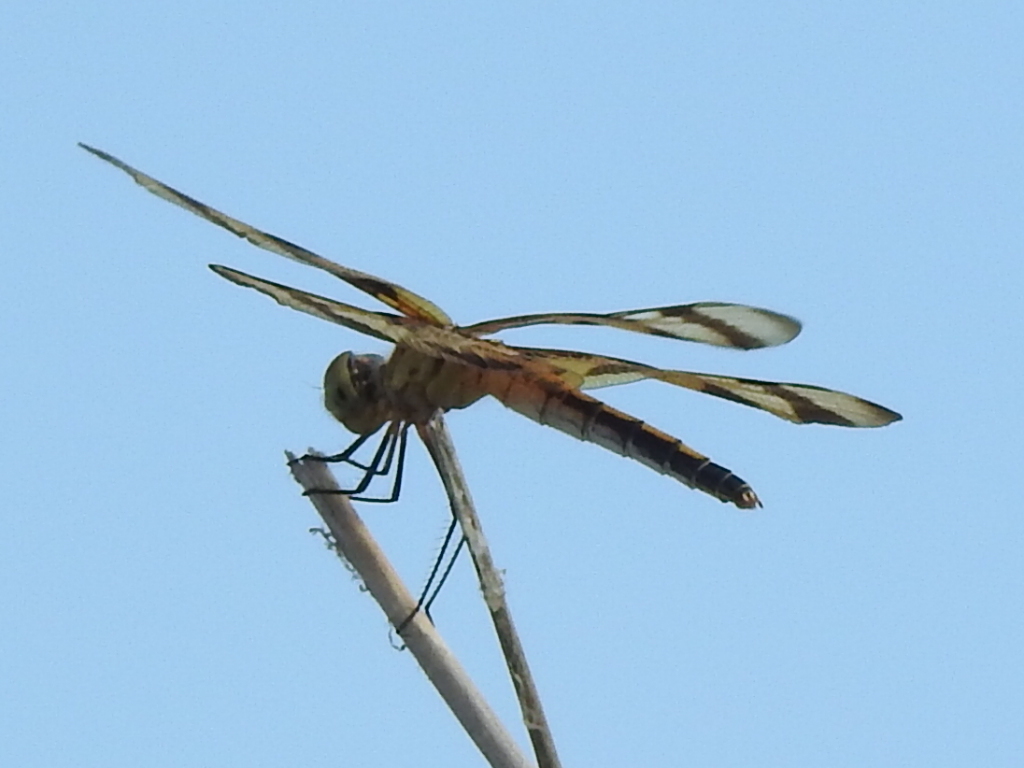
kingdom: Animalia
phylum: Arthropoda
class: Insecta
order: Odonata
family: Libellulidae
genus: Celithemis
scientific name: Celithemis eponina
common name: Halloween pennant
